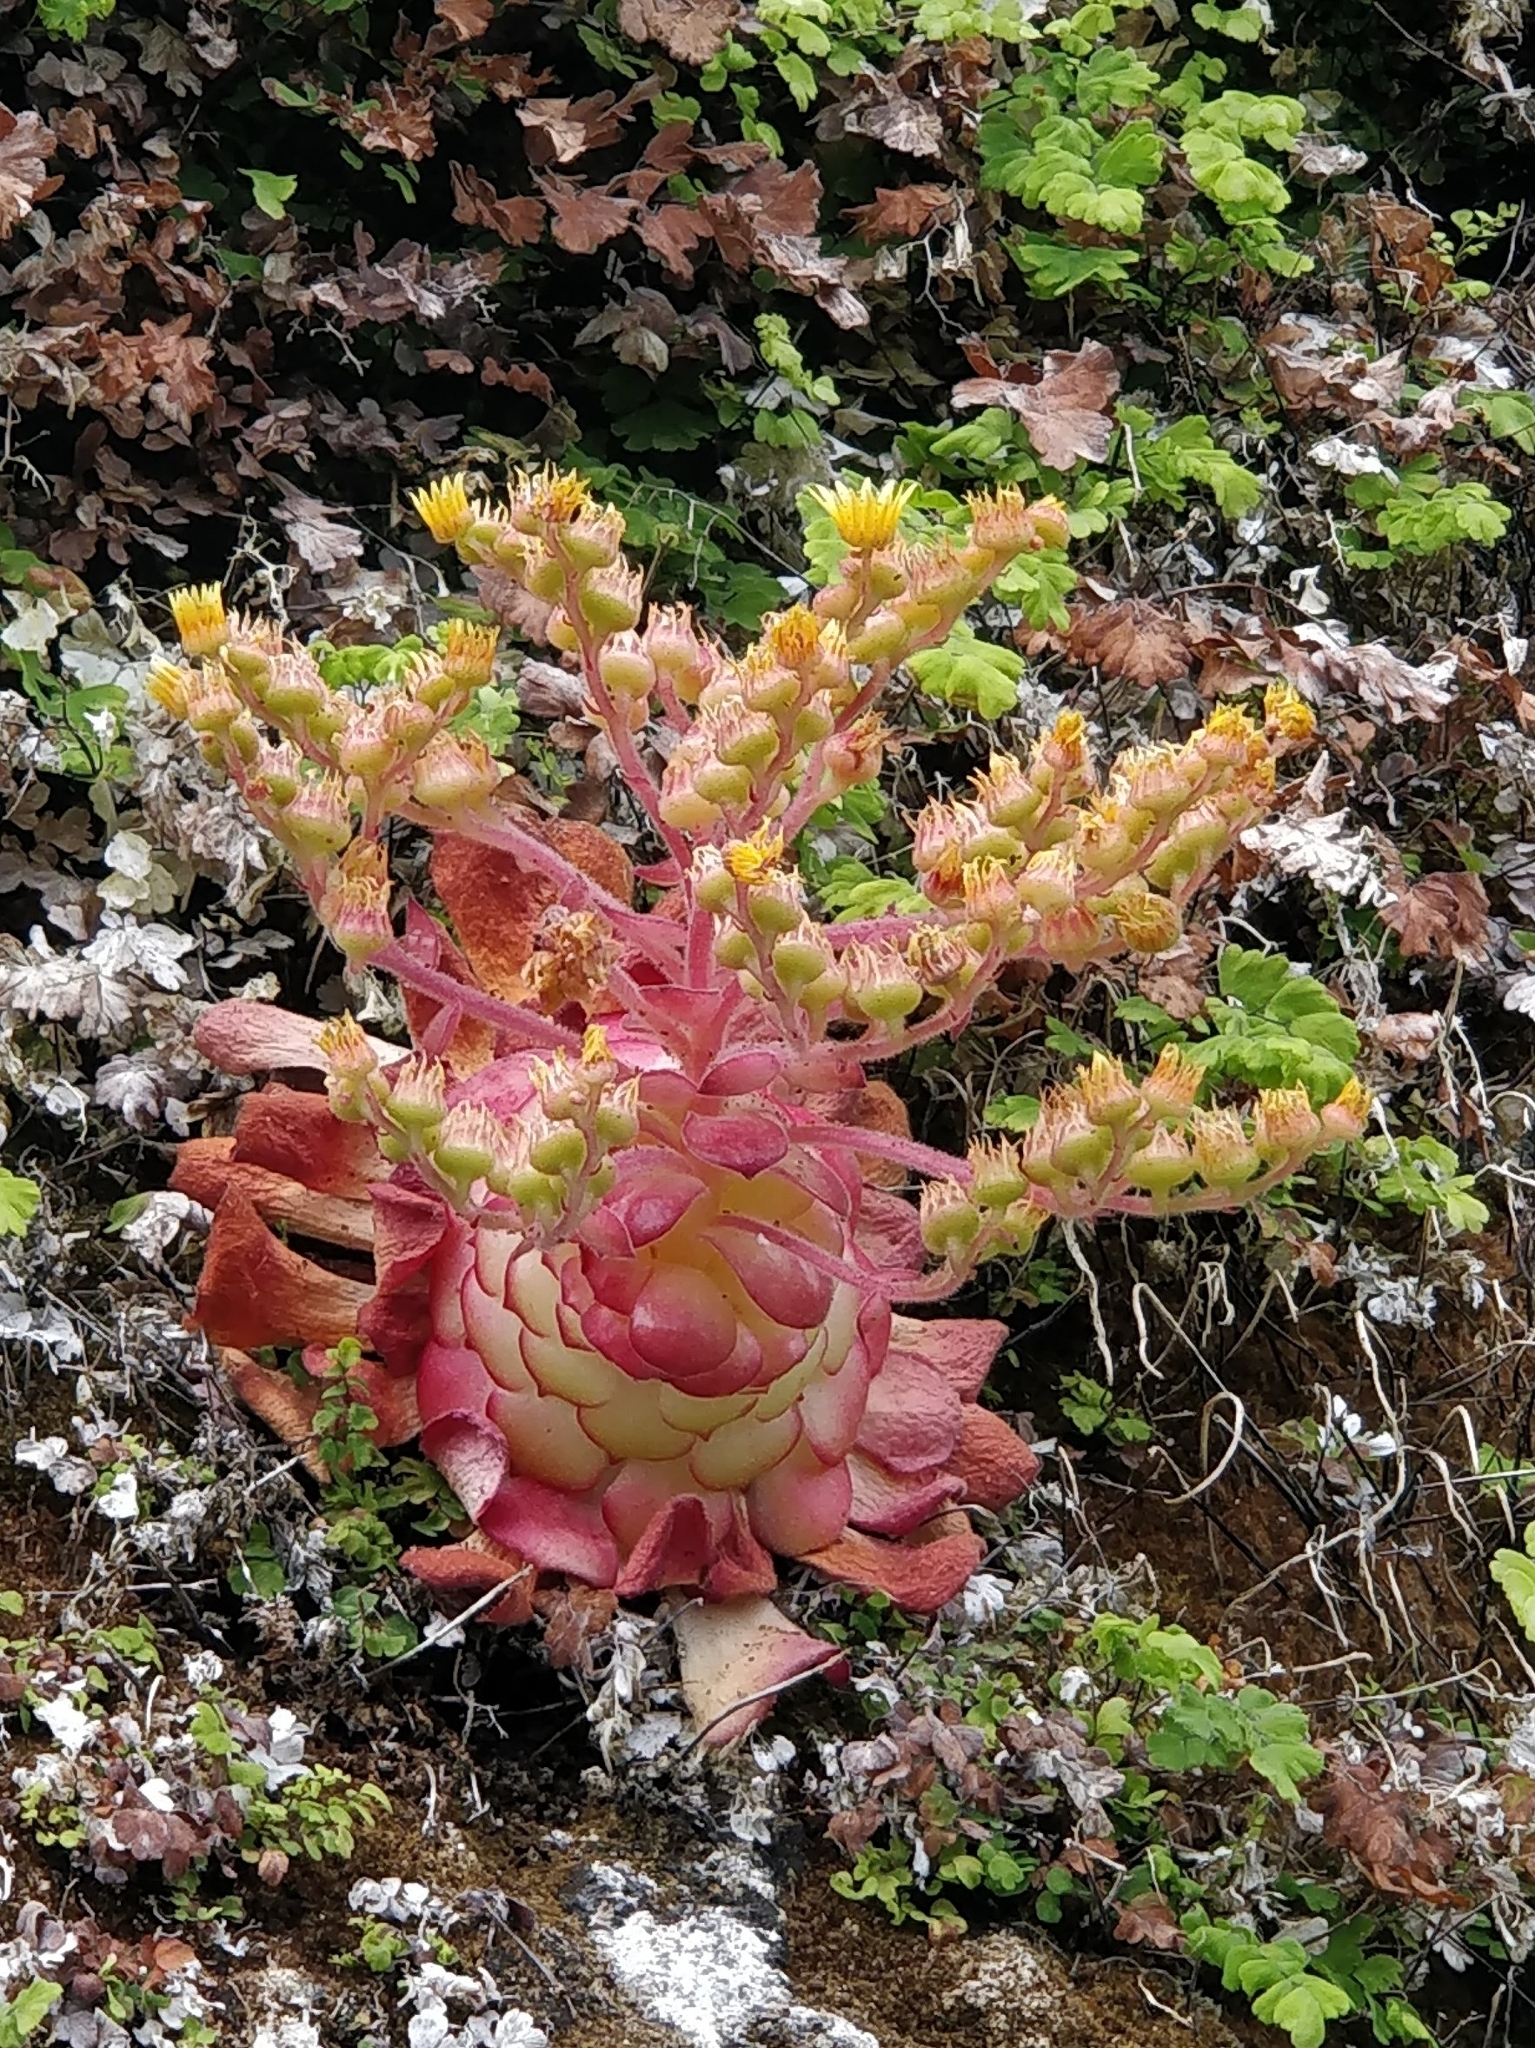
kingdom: Plantae
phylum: Tracheophyta
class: Magnoliopsida
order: Saxifragales
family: Crassulaceae
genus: Aeonium
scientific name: Aeonium glandulosum
